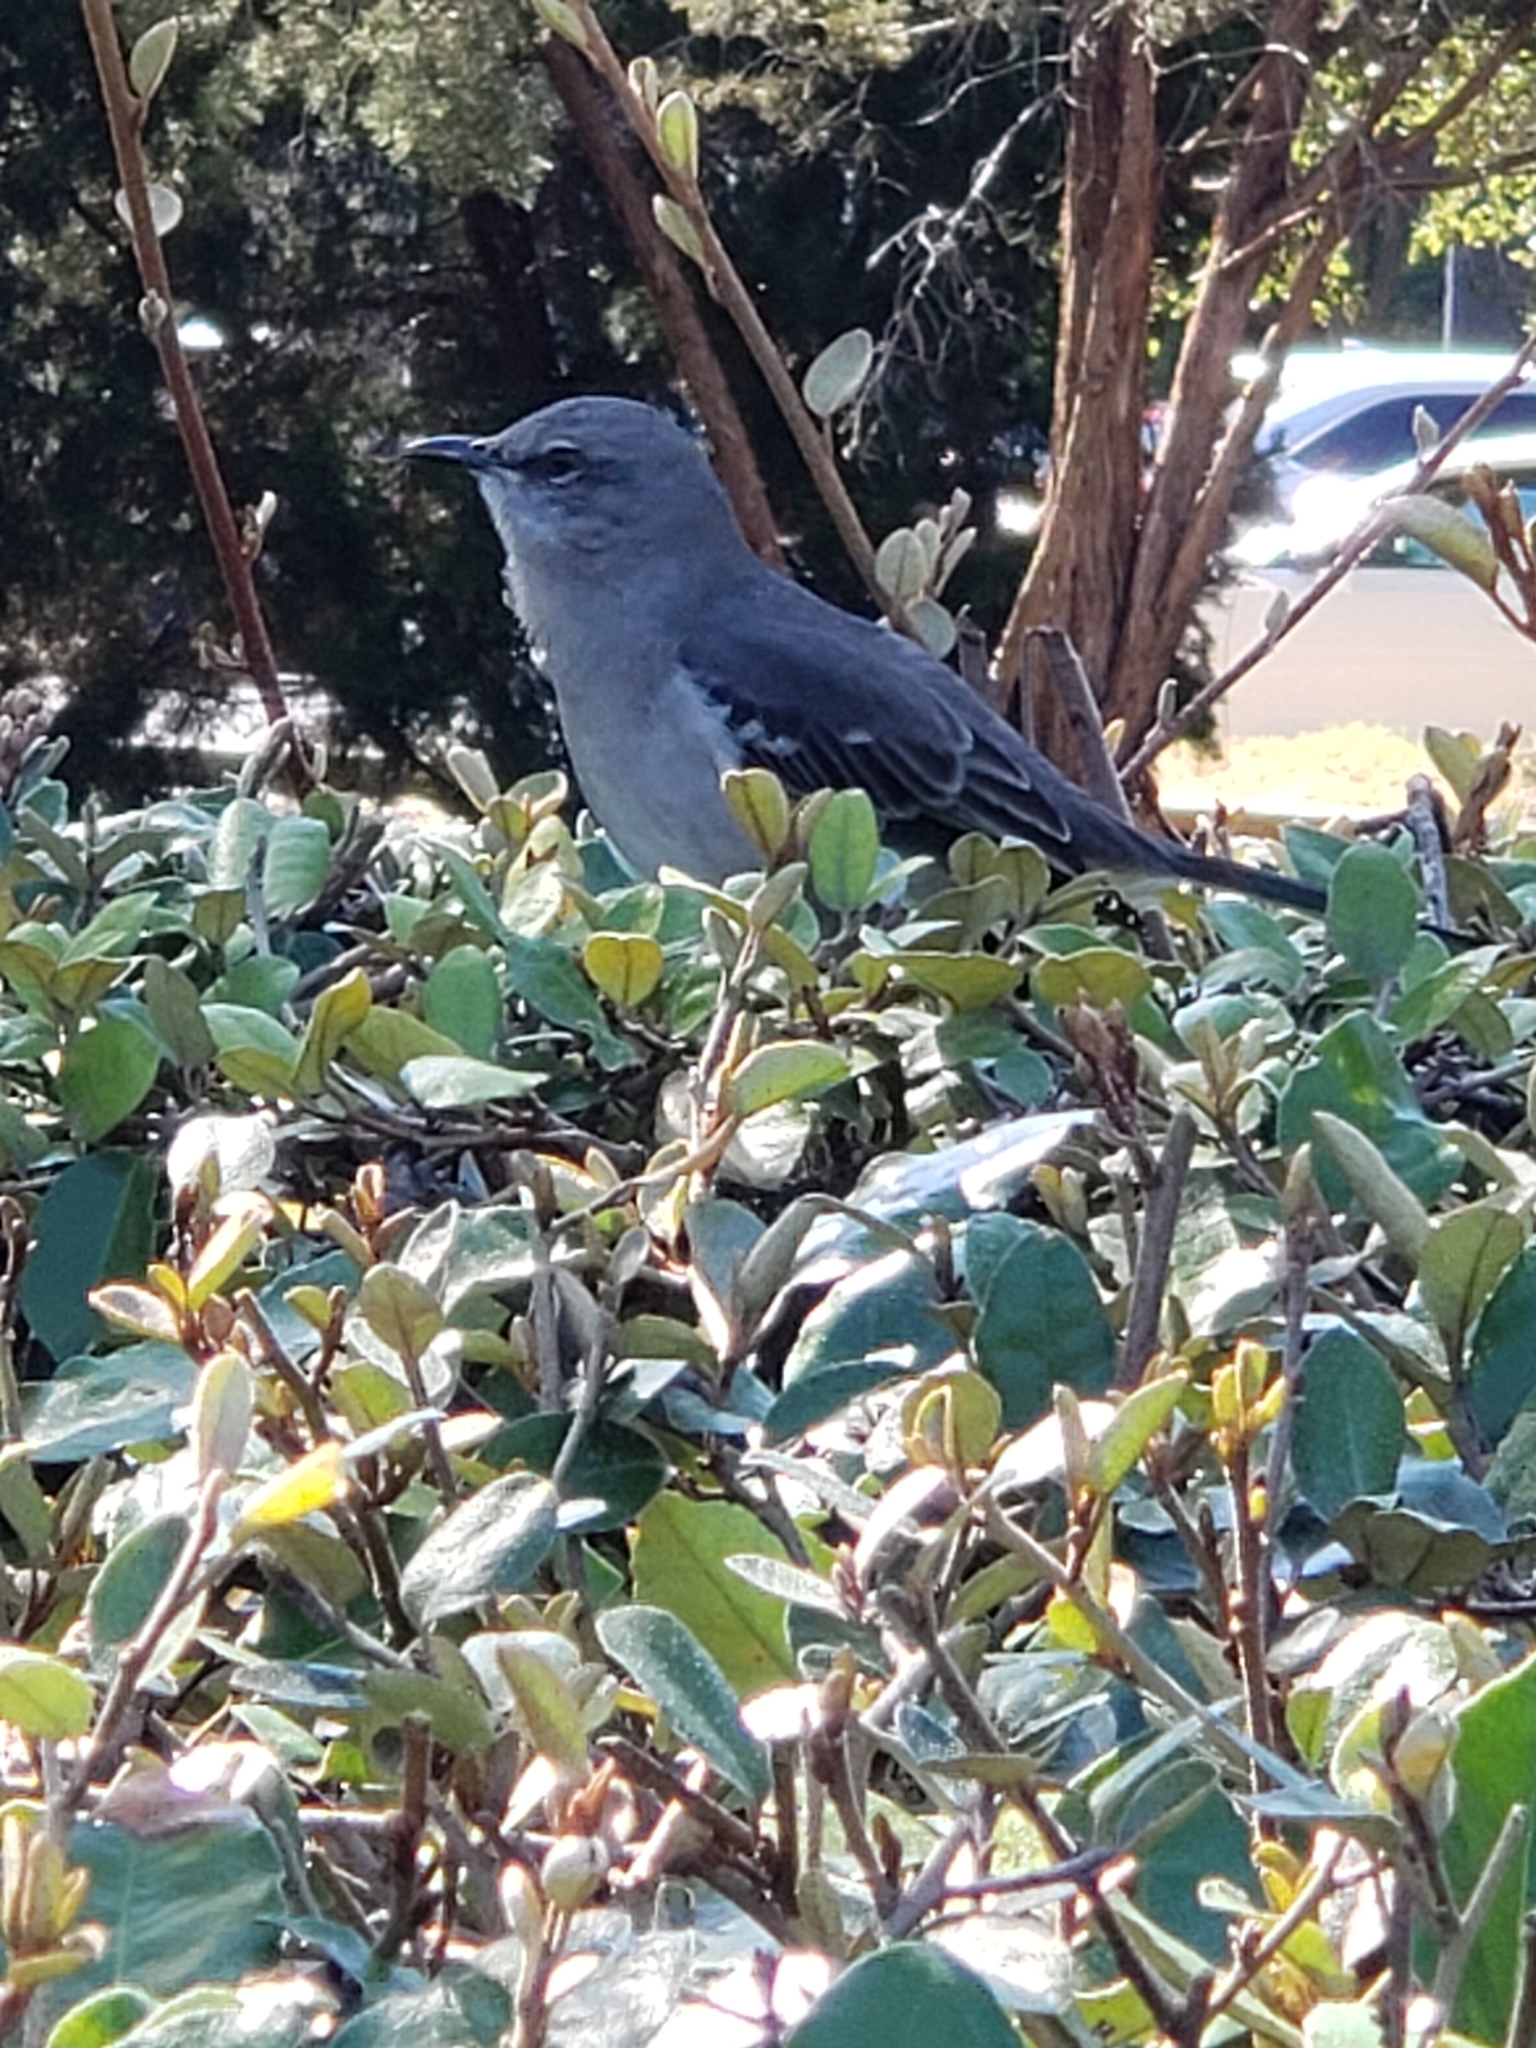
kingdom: Animalia
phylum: Chordata
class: Aves
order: Passeriformes
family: Mimidae
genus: Mimus
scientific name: Mimus polyglottos
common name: Northern mockingbird
